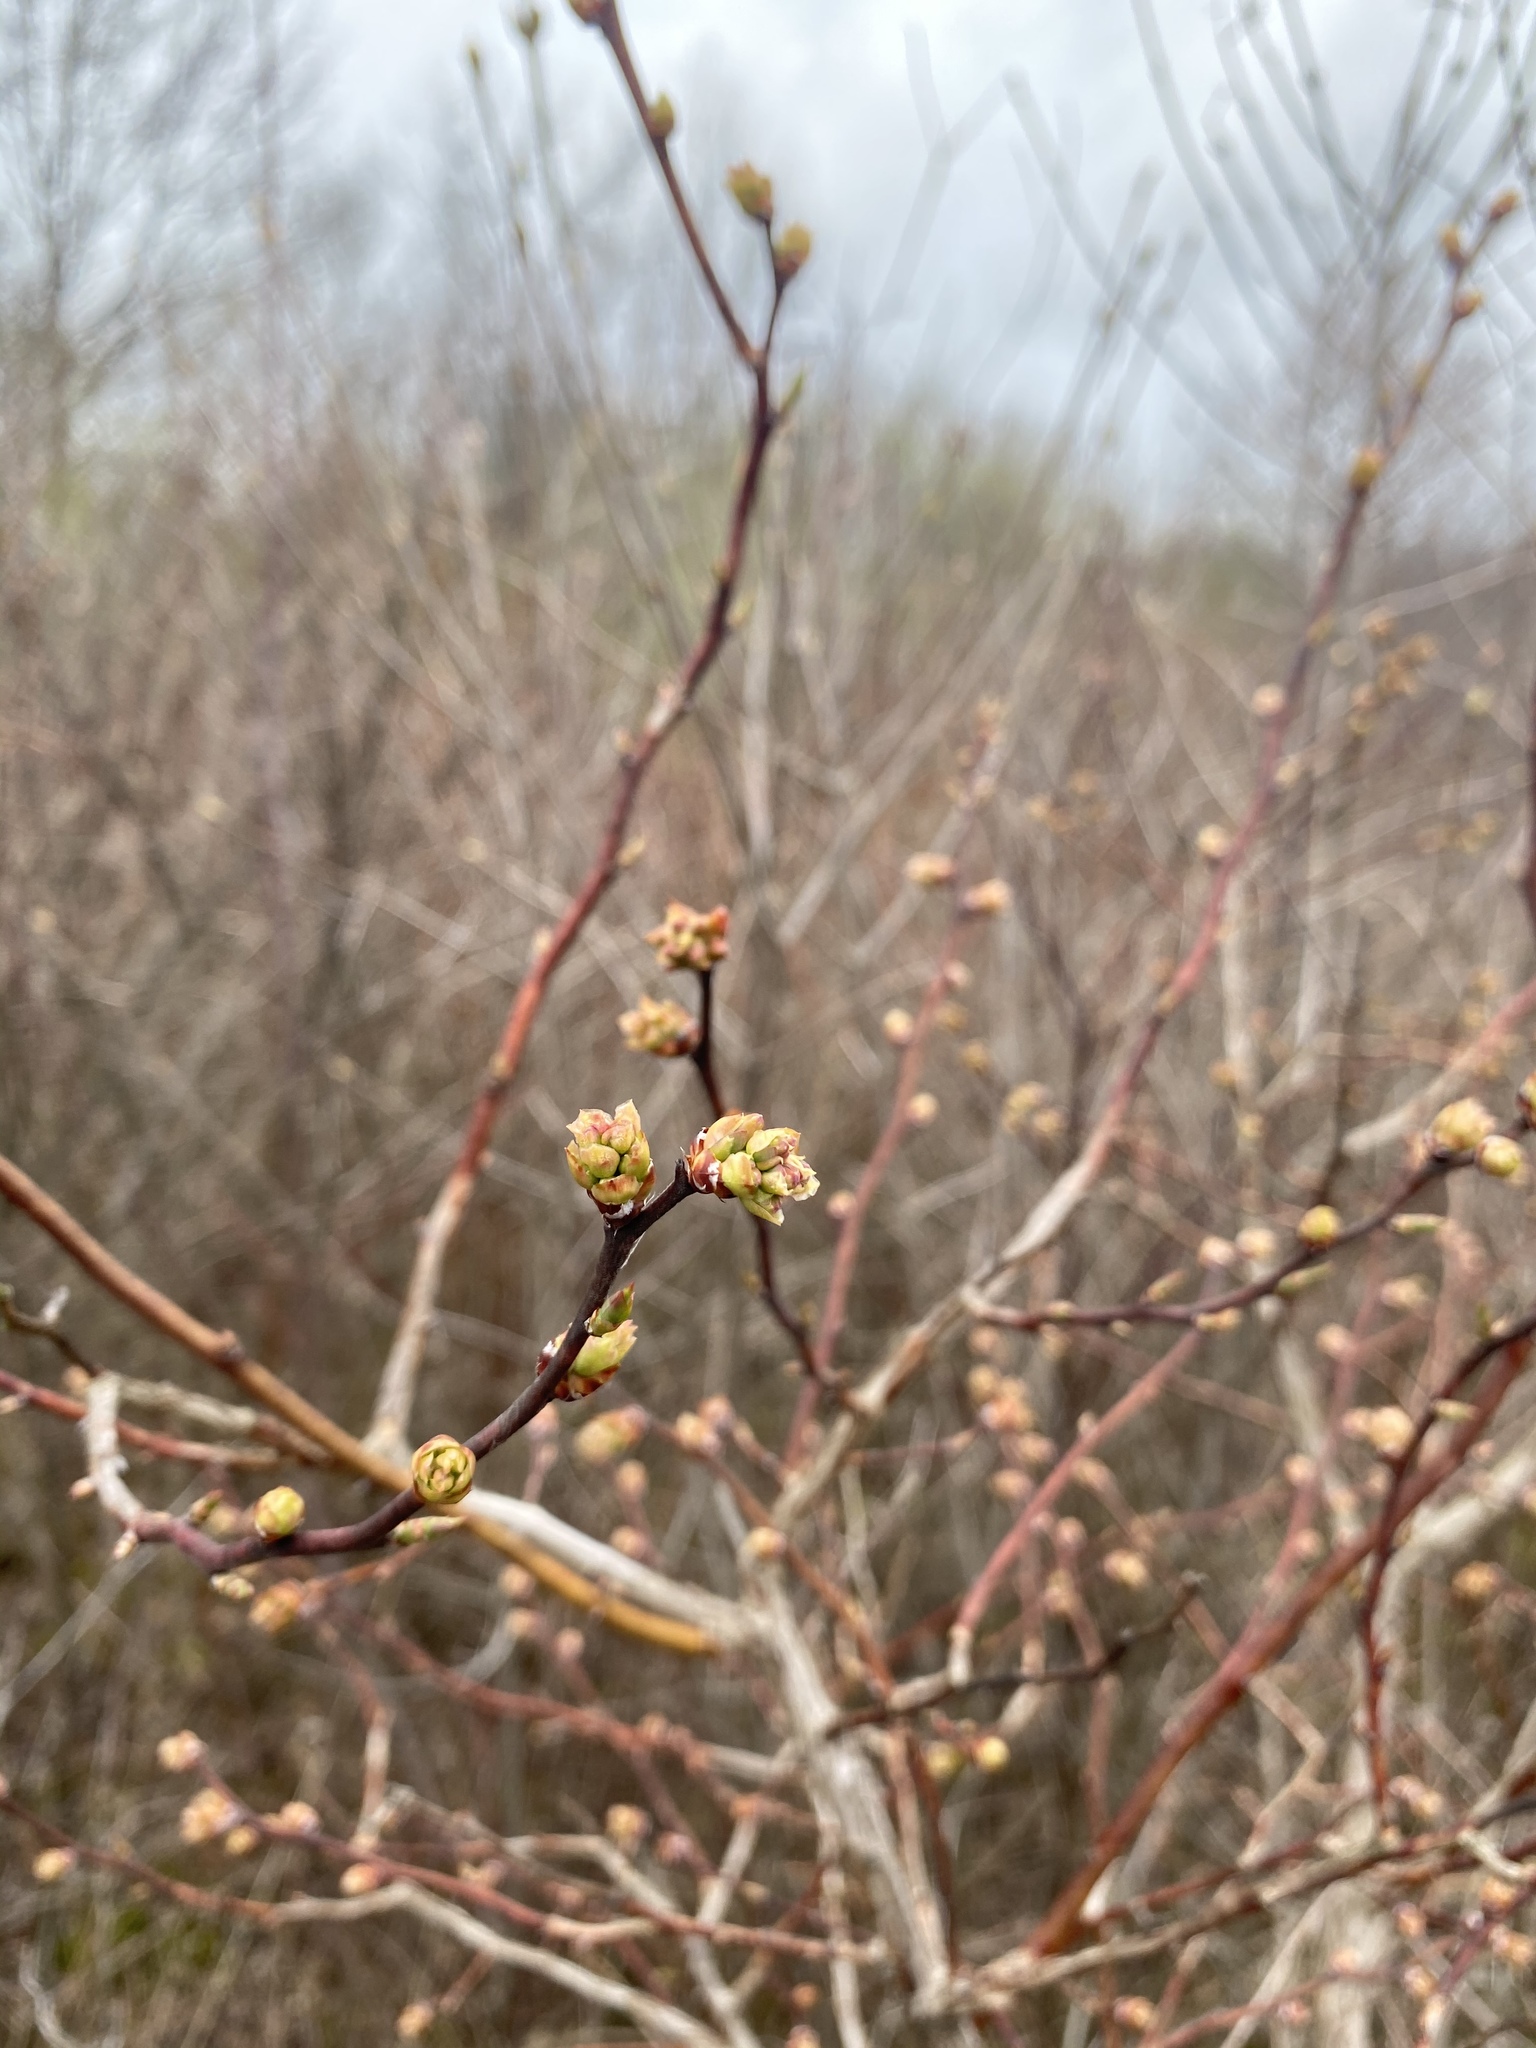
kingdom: Plantae
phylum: Tracheophyta
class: Magnoliopsida
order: Ericales
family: Ericaceae
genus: Vaccinium
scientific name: Vaccinium corymbosum
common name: Blueberry
